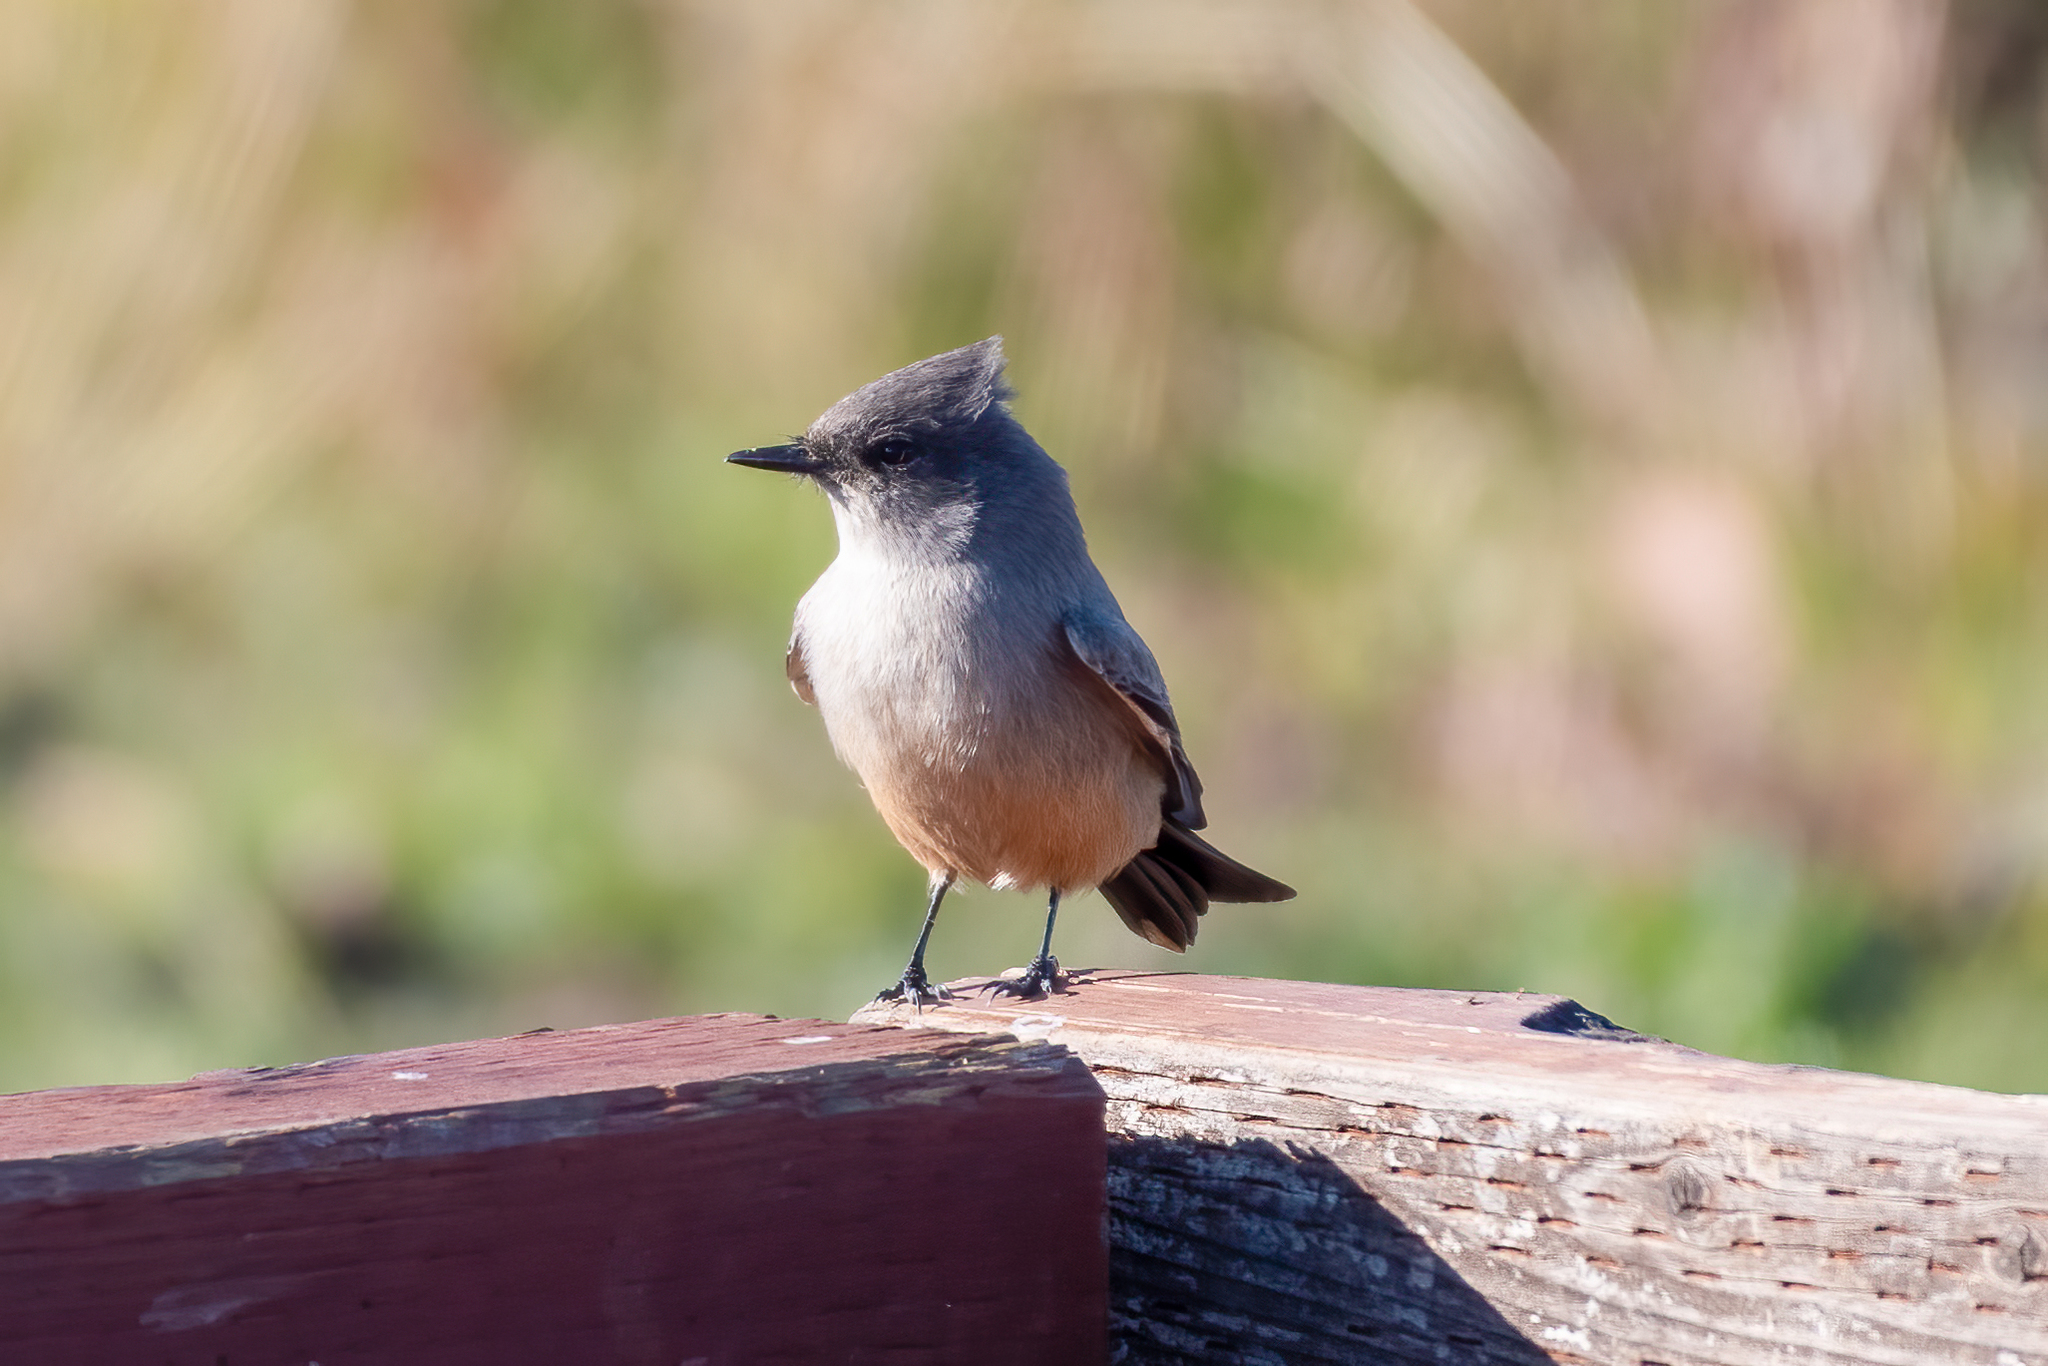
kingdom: Animalia
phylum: Chordata
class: Aves
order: Passeriformes
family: Tyrannidae
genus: Sayornis
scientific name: Sayornis saya
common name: Say's phoebe
